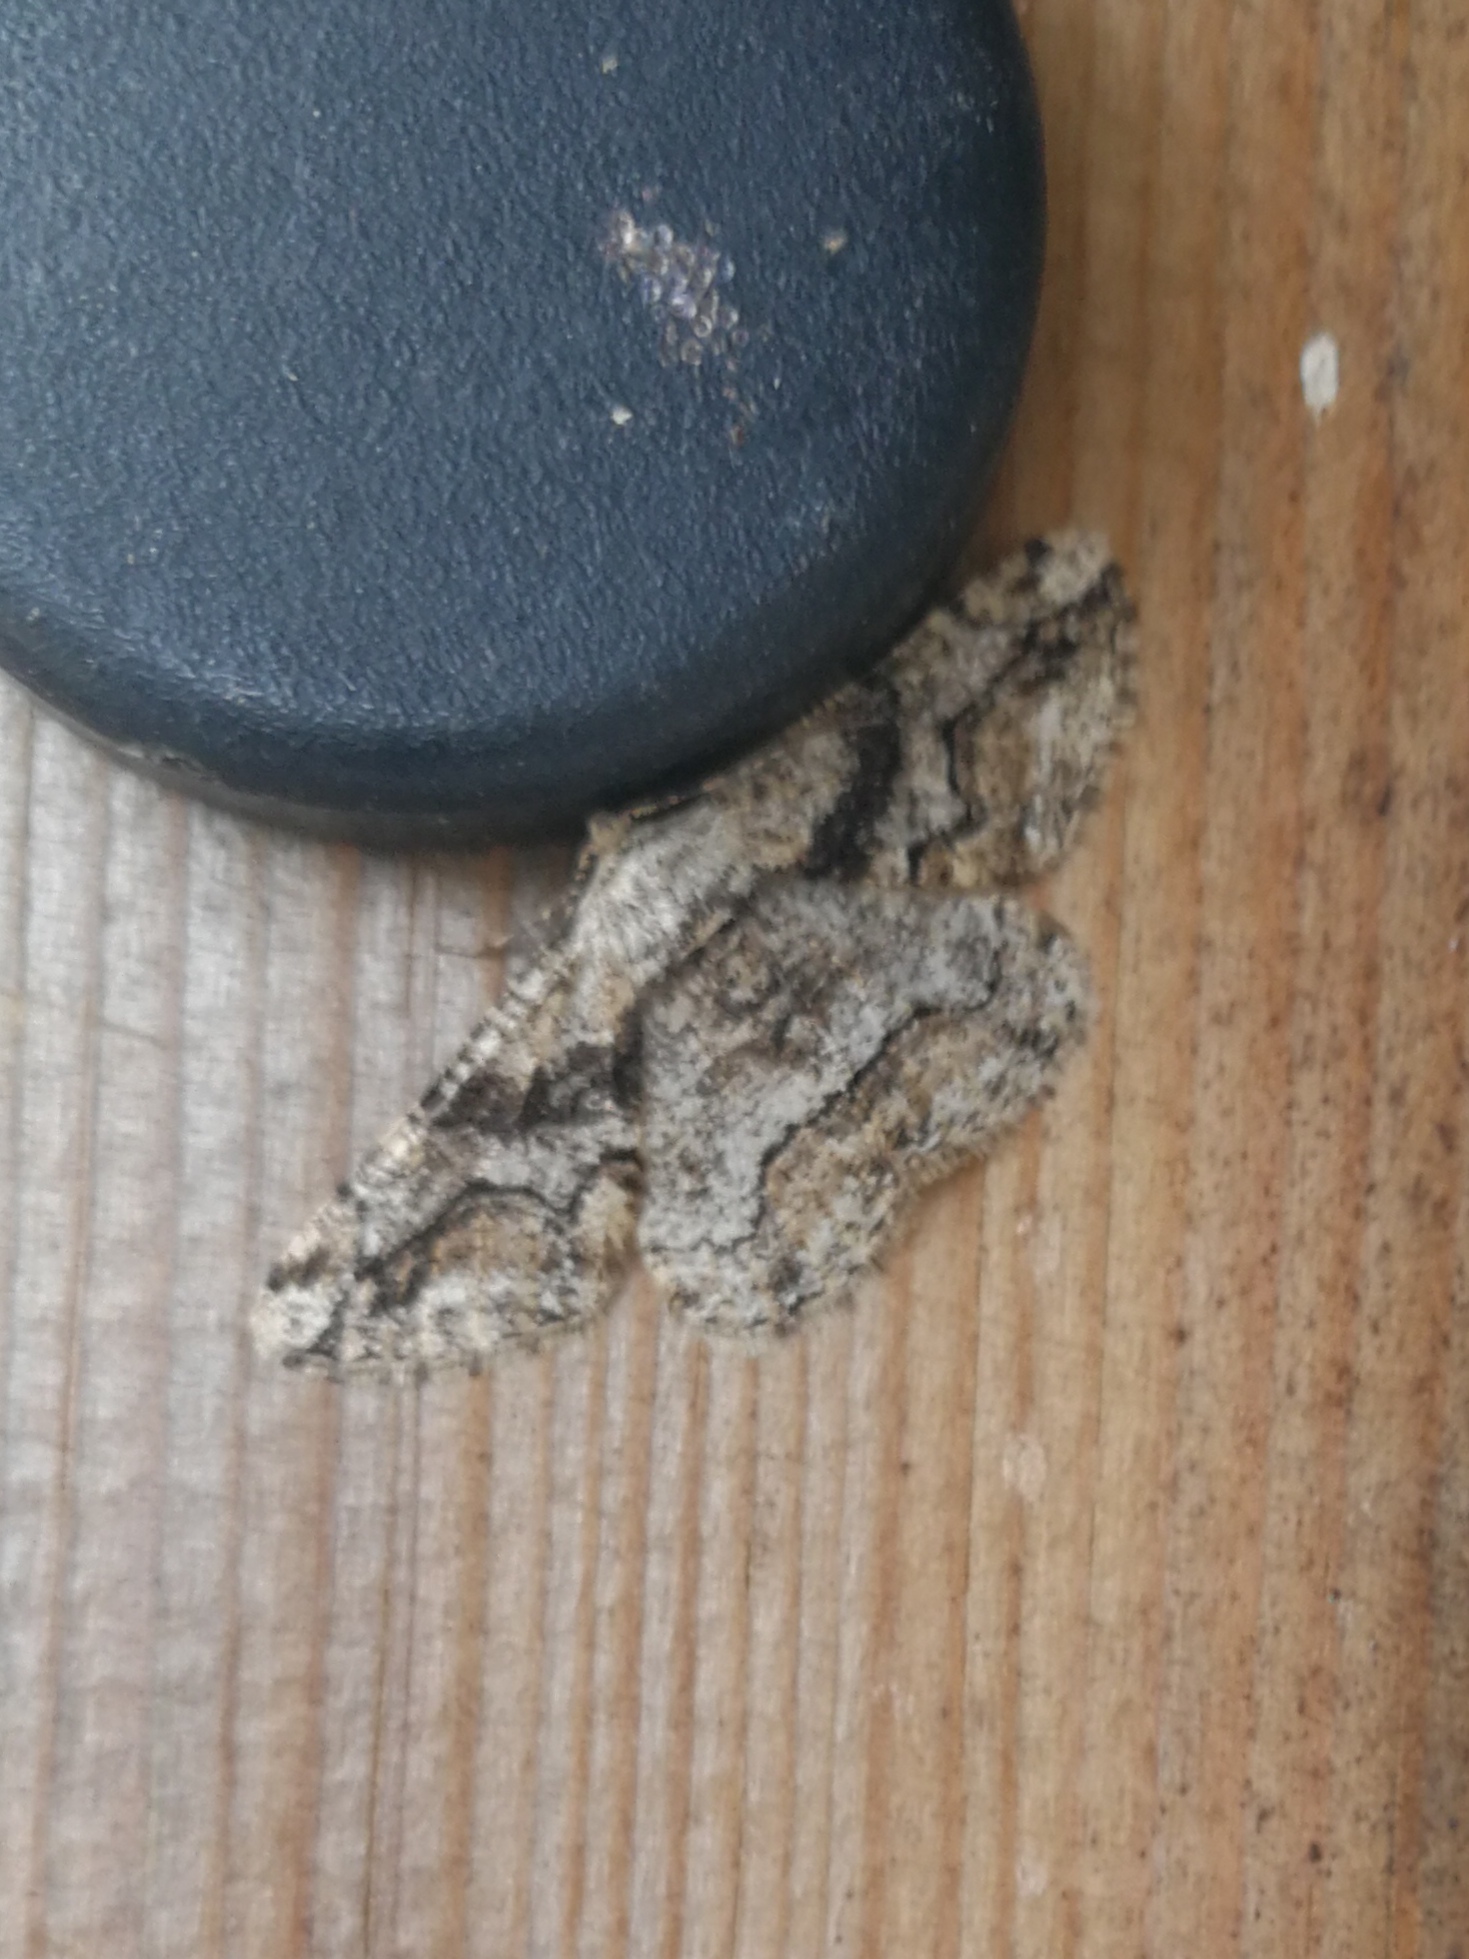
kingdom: Animalia
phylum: Arthropoda
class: Insecta
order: Lepidoptera
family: Geometridae
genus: Synopsia
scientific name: Synopsia sociaria
